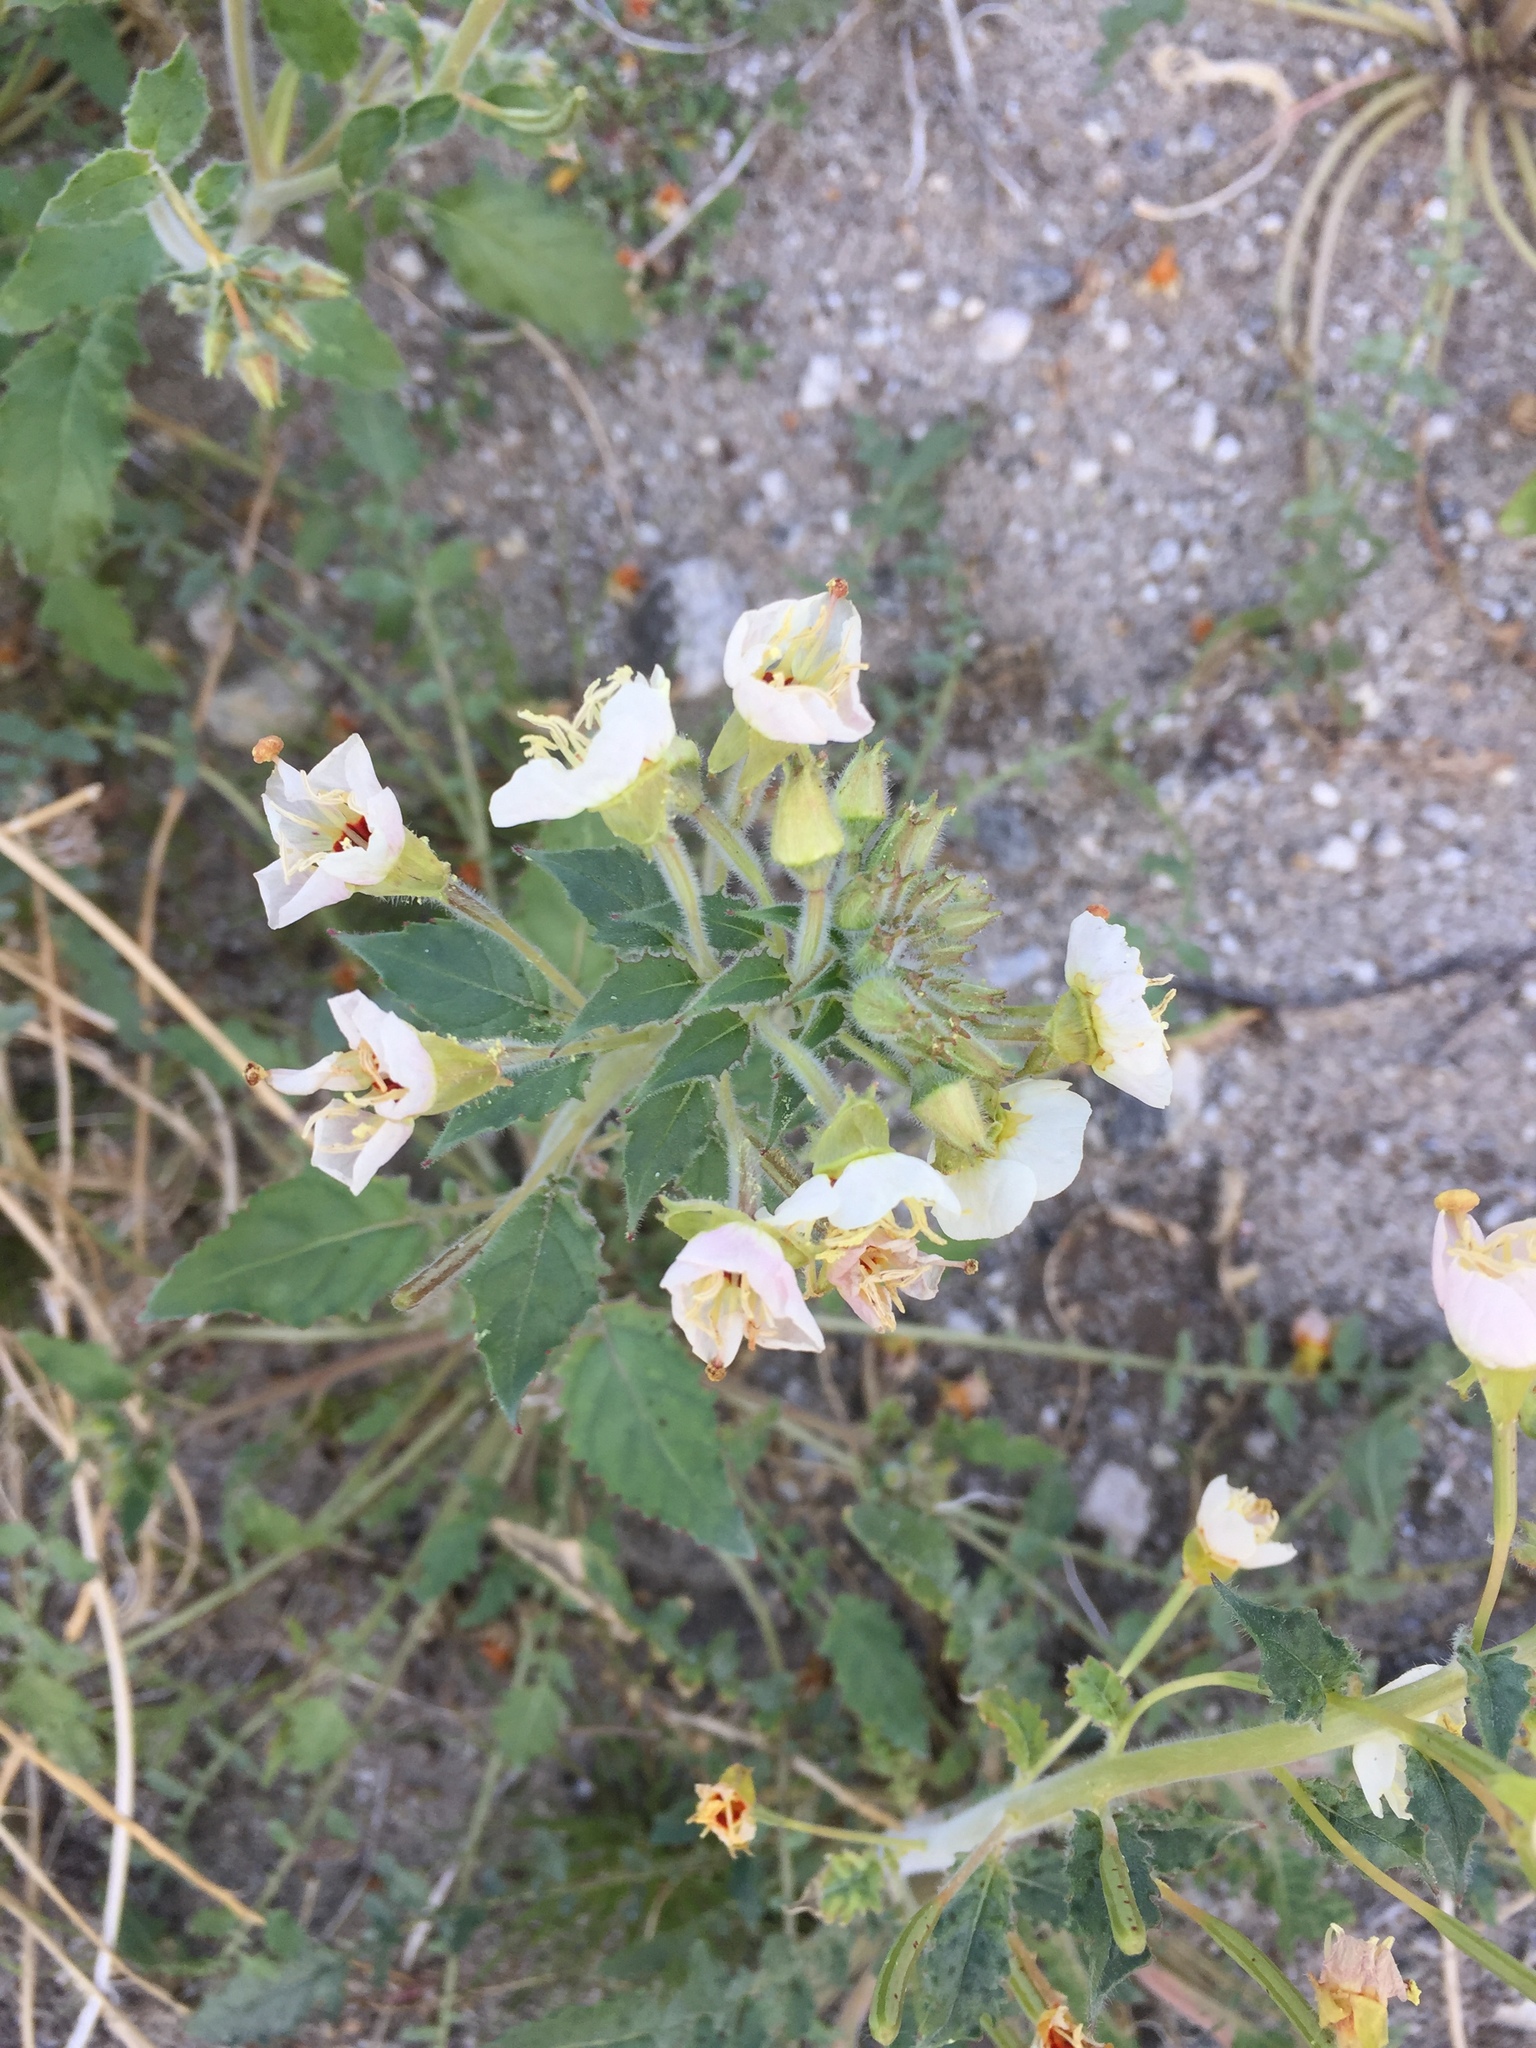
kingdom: Plantae
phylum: Tracheophyta
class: Magnoliopsida
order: Myrtales
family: Onagraceae
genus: Chylismia
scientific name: Chylismia claviformis
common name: Browneyes
